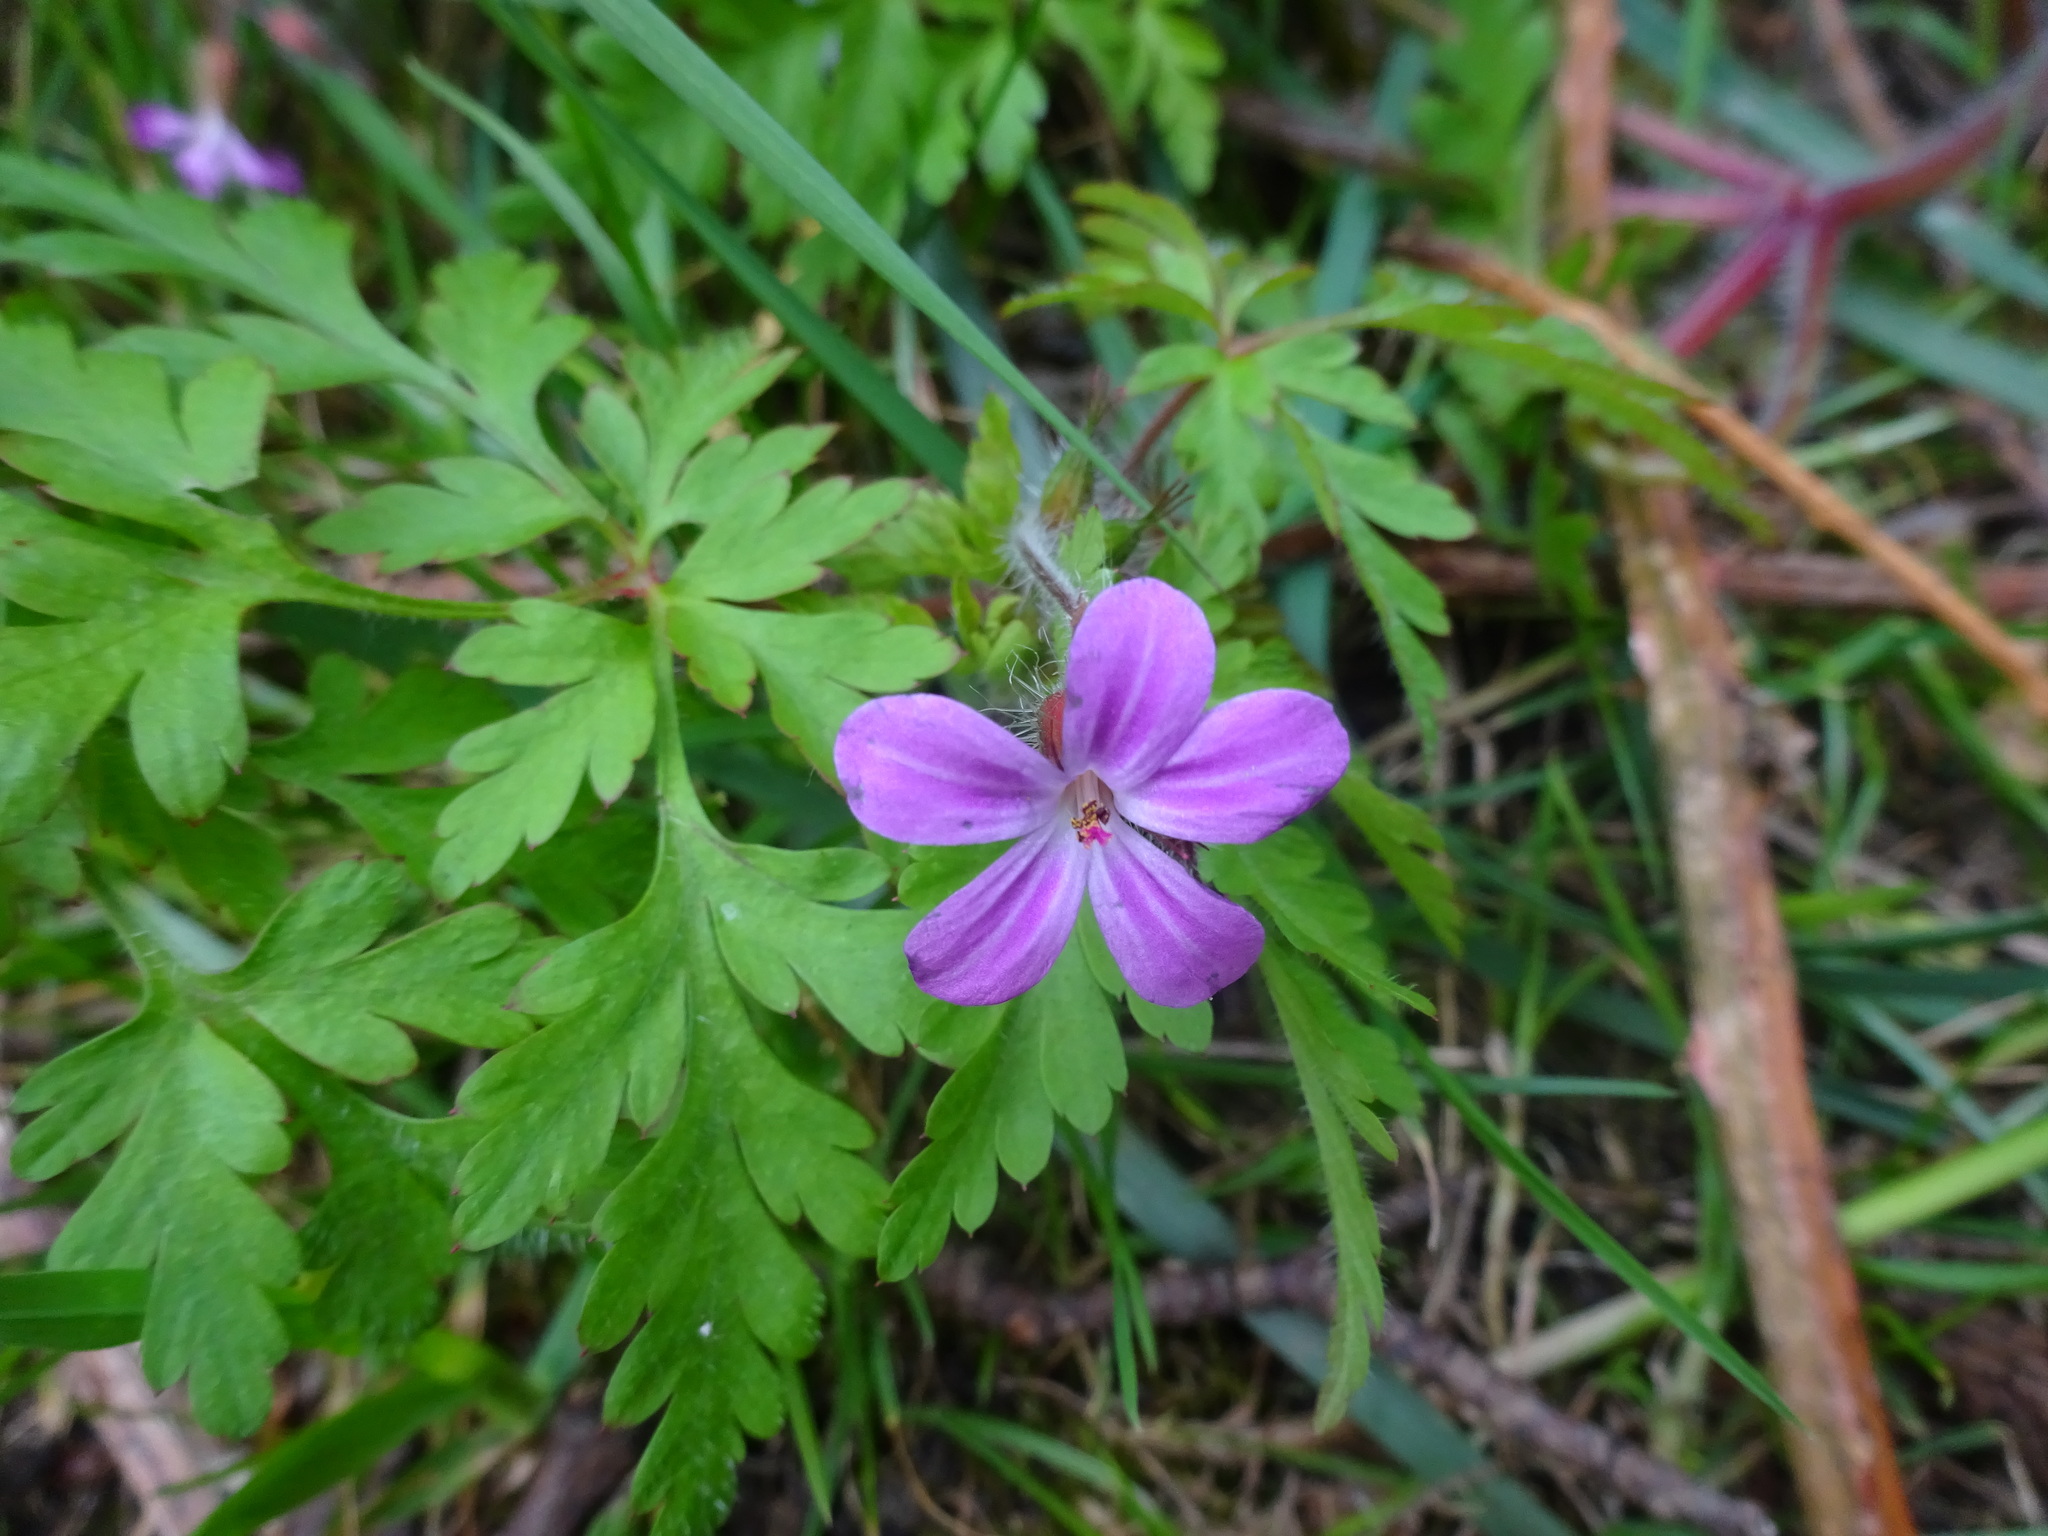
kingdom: Plantae
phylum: Tracheophyta
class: Magnoliopsida
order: Geraniales
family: Geraniaceae
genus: Geranium
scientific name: Geranium robertianum
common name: Herb-robert
